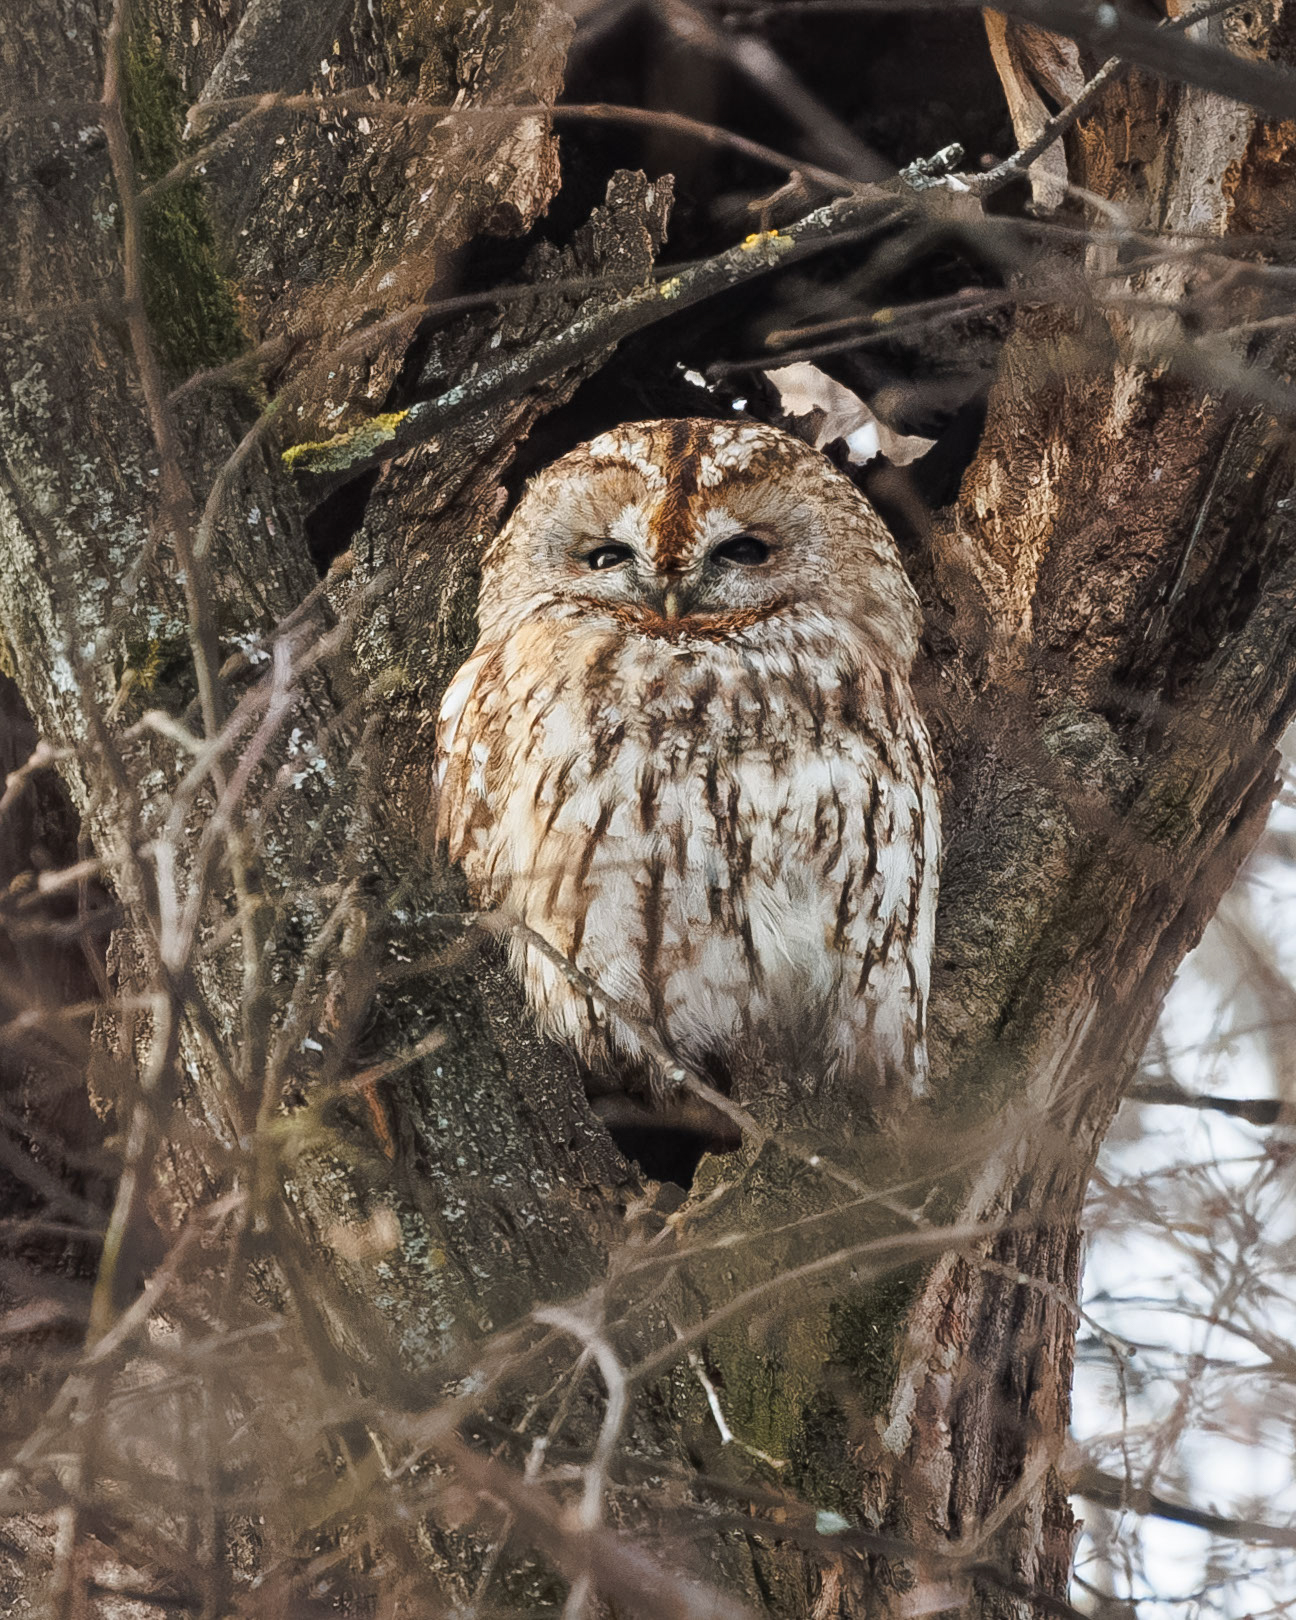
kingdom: Animalia
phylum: Chordata
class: Aves
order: Strigiformes
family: Strigidae
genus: Strix
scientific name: Strix aluco
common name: Tawny owl
